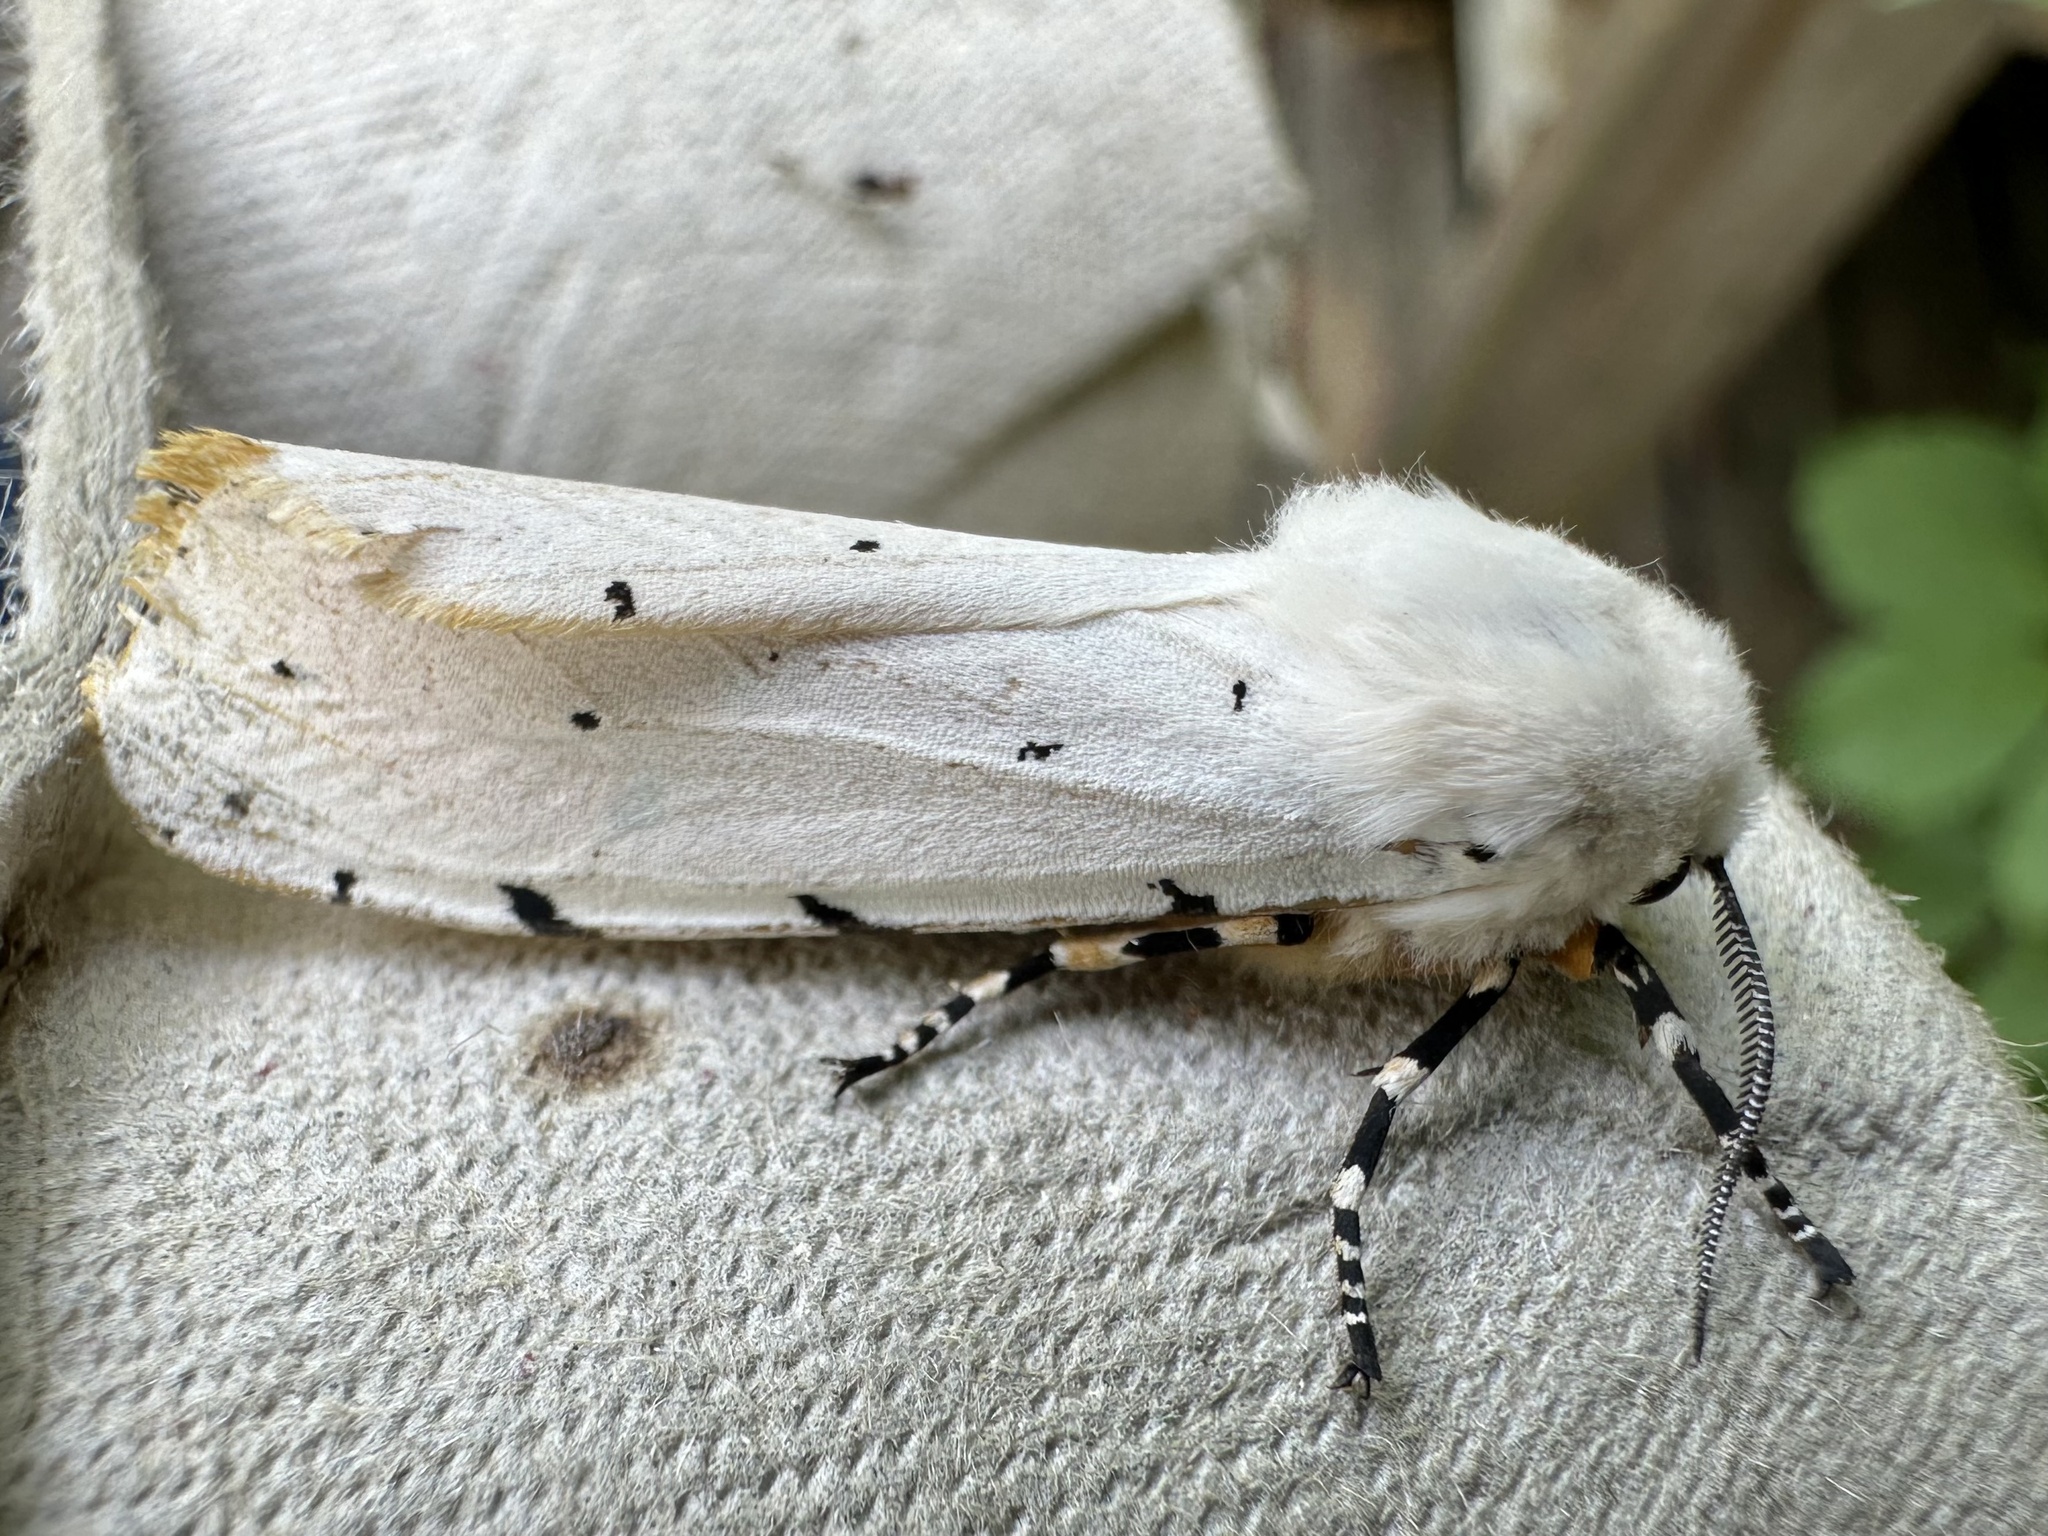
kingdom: Animalia
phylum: Arthropoda
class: Insecta
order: Lepidoptera
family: Erebidae
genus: Estigmene
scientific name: Estigmene acrea
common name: Salt marsh moth
